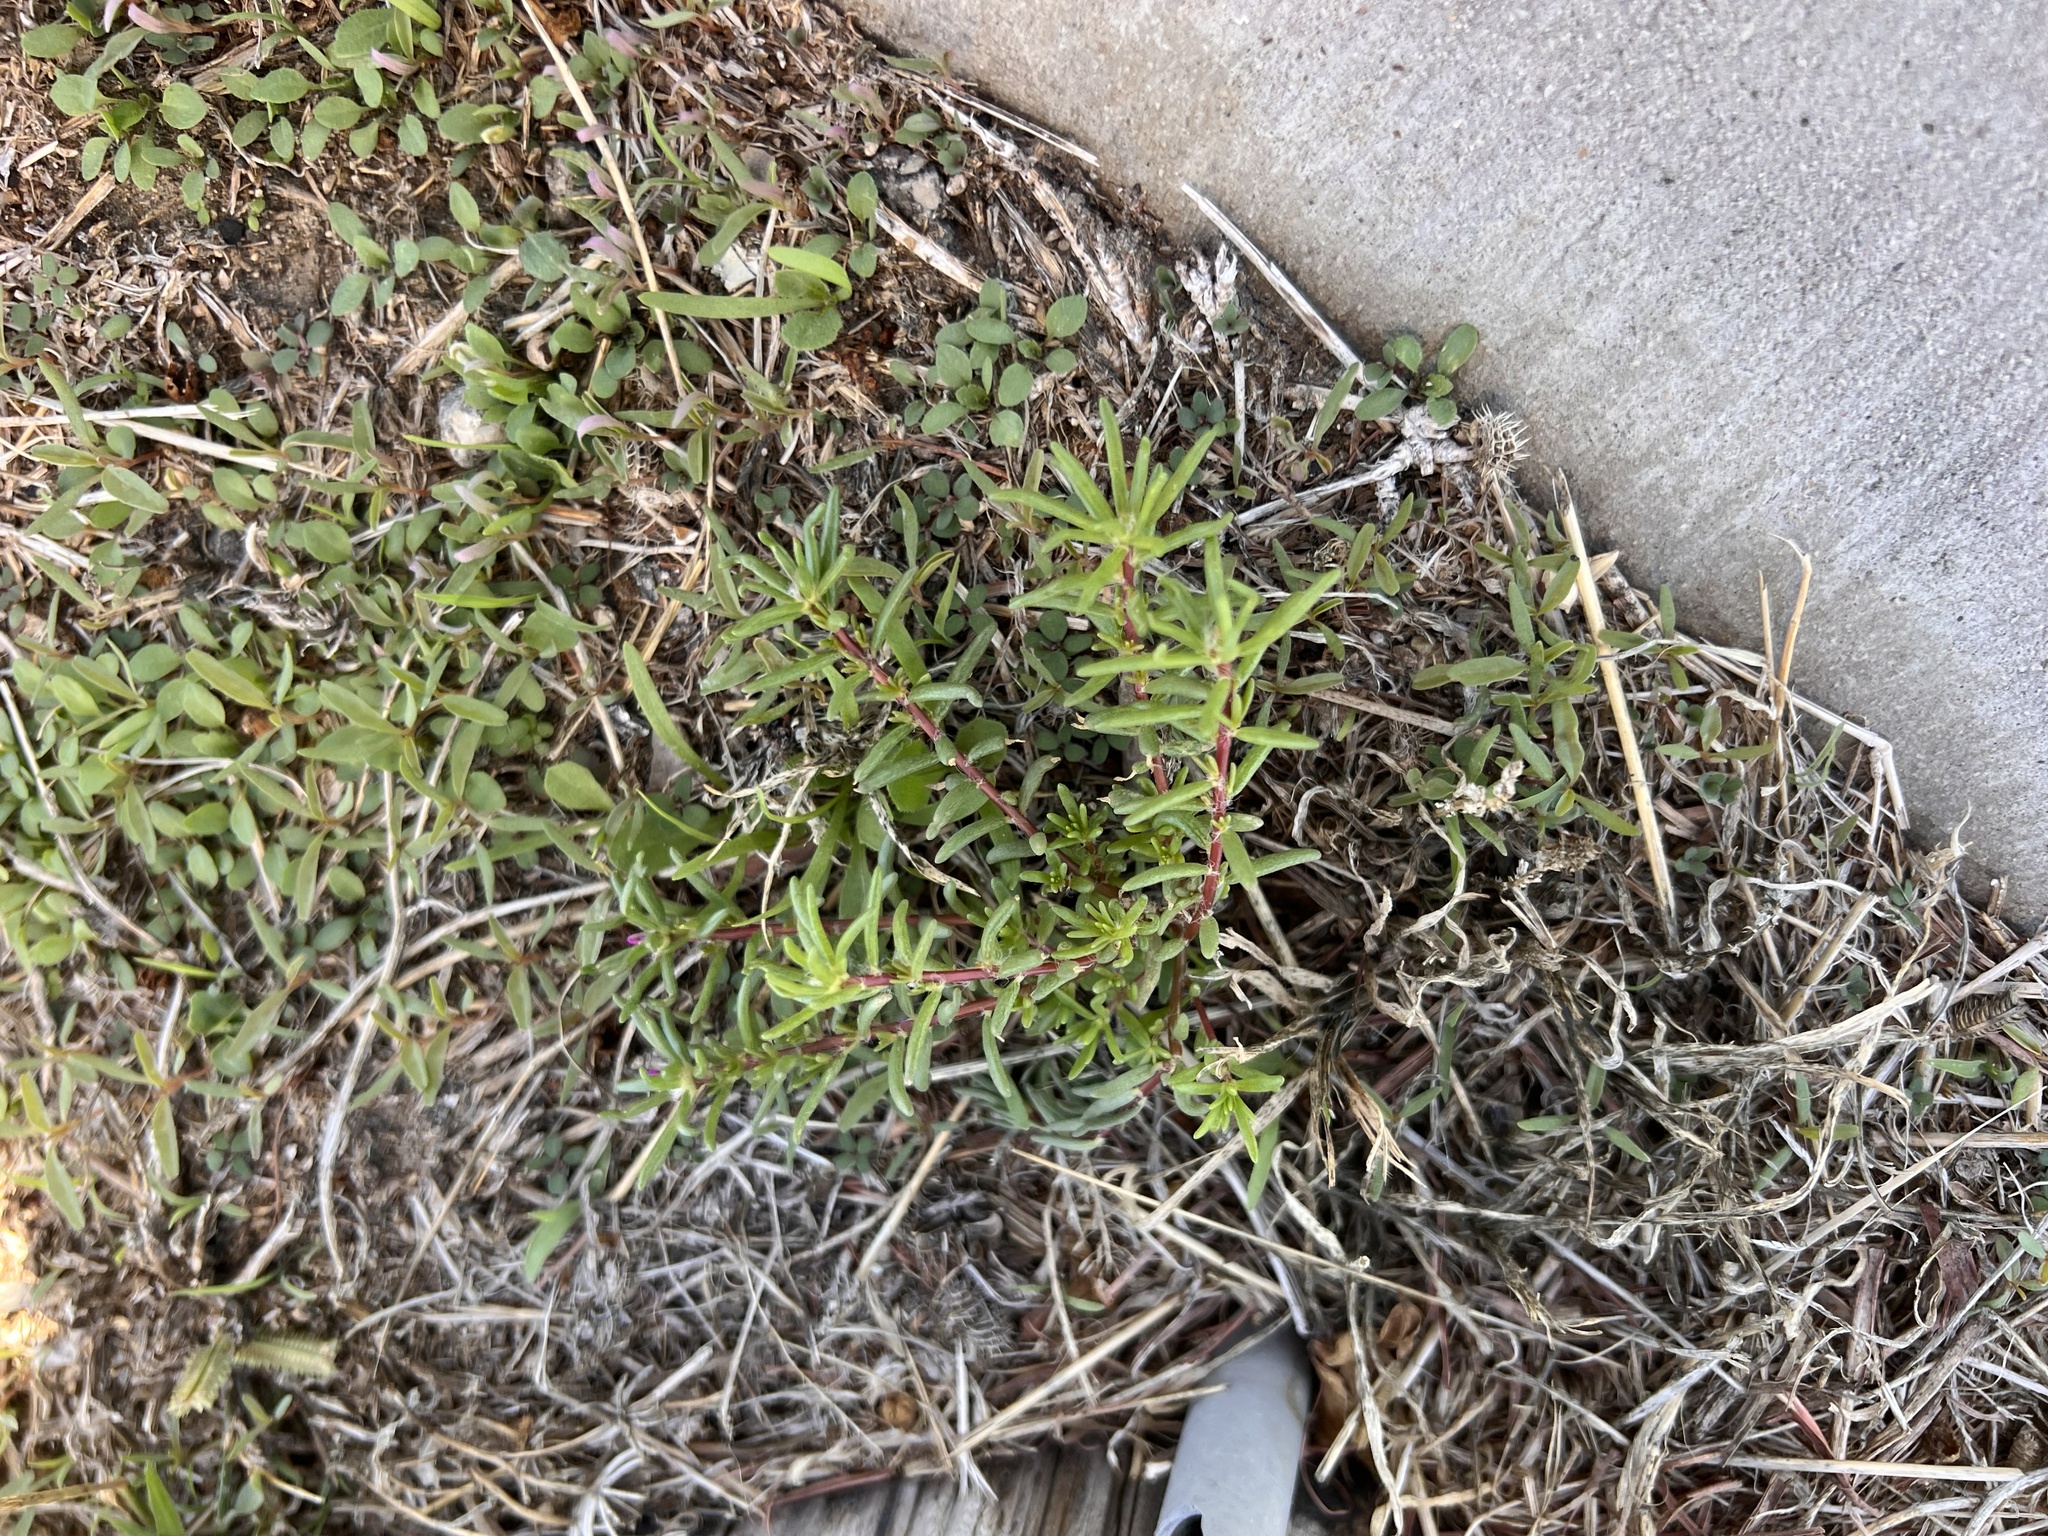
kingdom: Plantae
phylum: Tracheophyta
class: Magnoliopsida
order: Caryophyllales
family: Portulacaceae
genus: Portulaca
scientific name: Portulaca pilosa
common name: Kiss me quick
